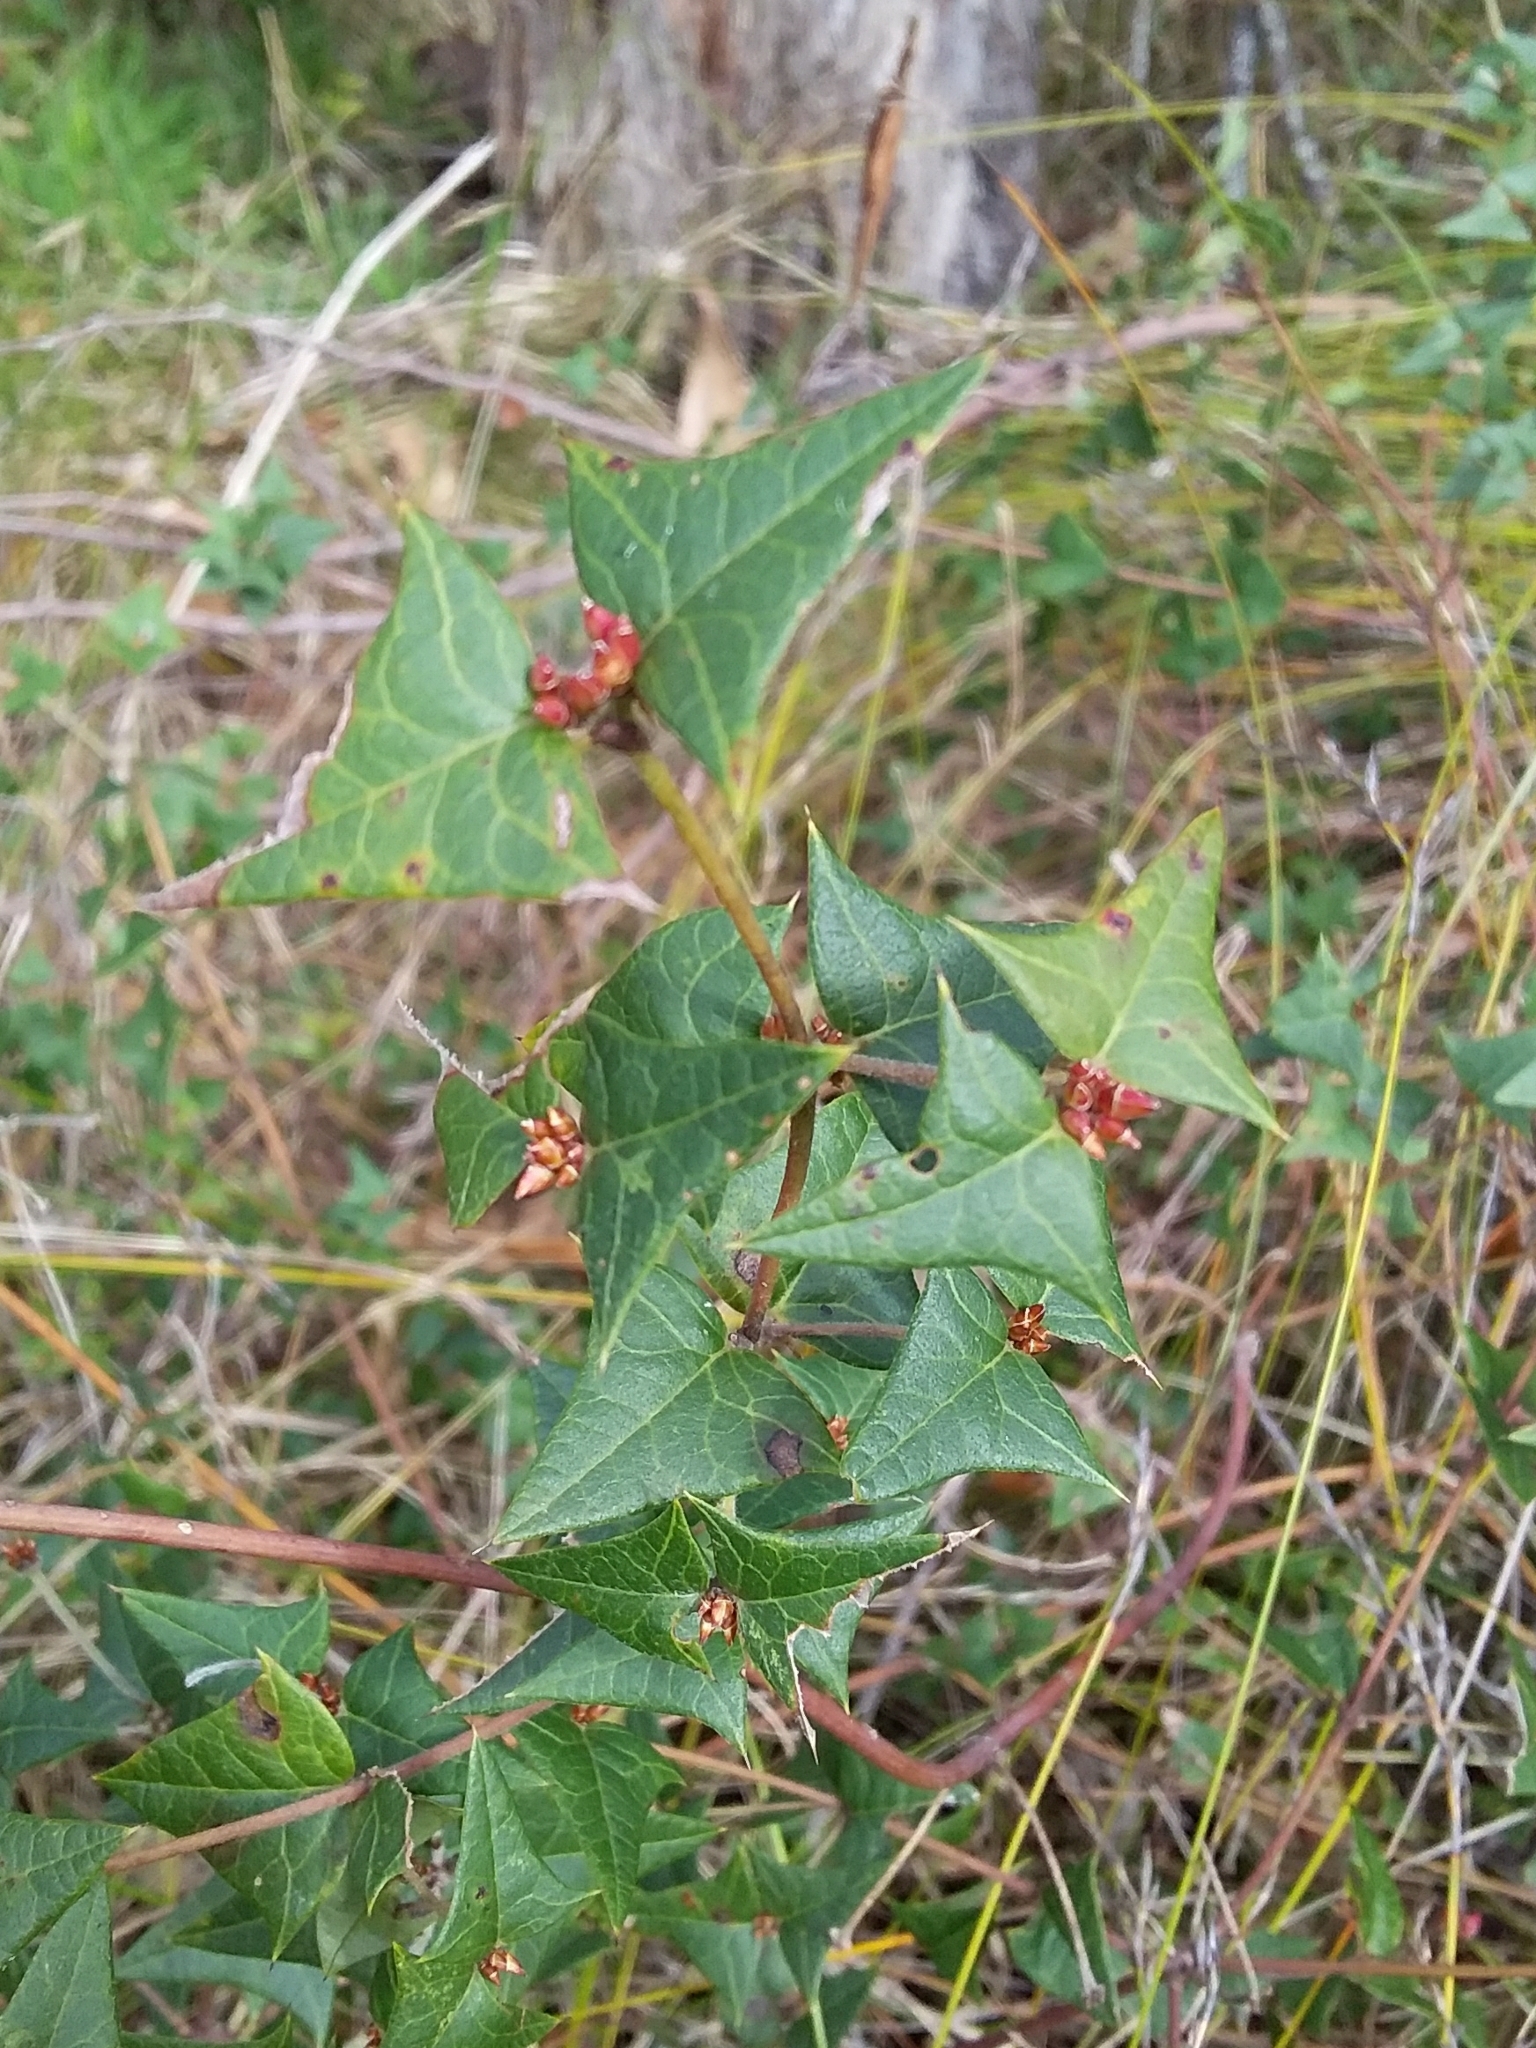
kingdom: Plantae
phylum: Tracheophyta
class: Magnoliopsida
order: Fabales
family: Fabaceae
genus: Platylobium
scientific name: Platylobium obtusangulum
